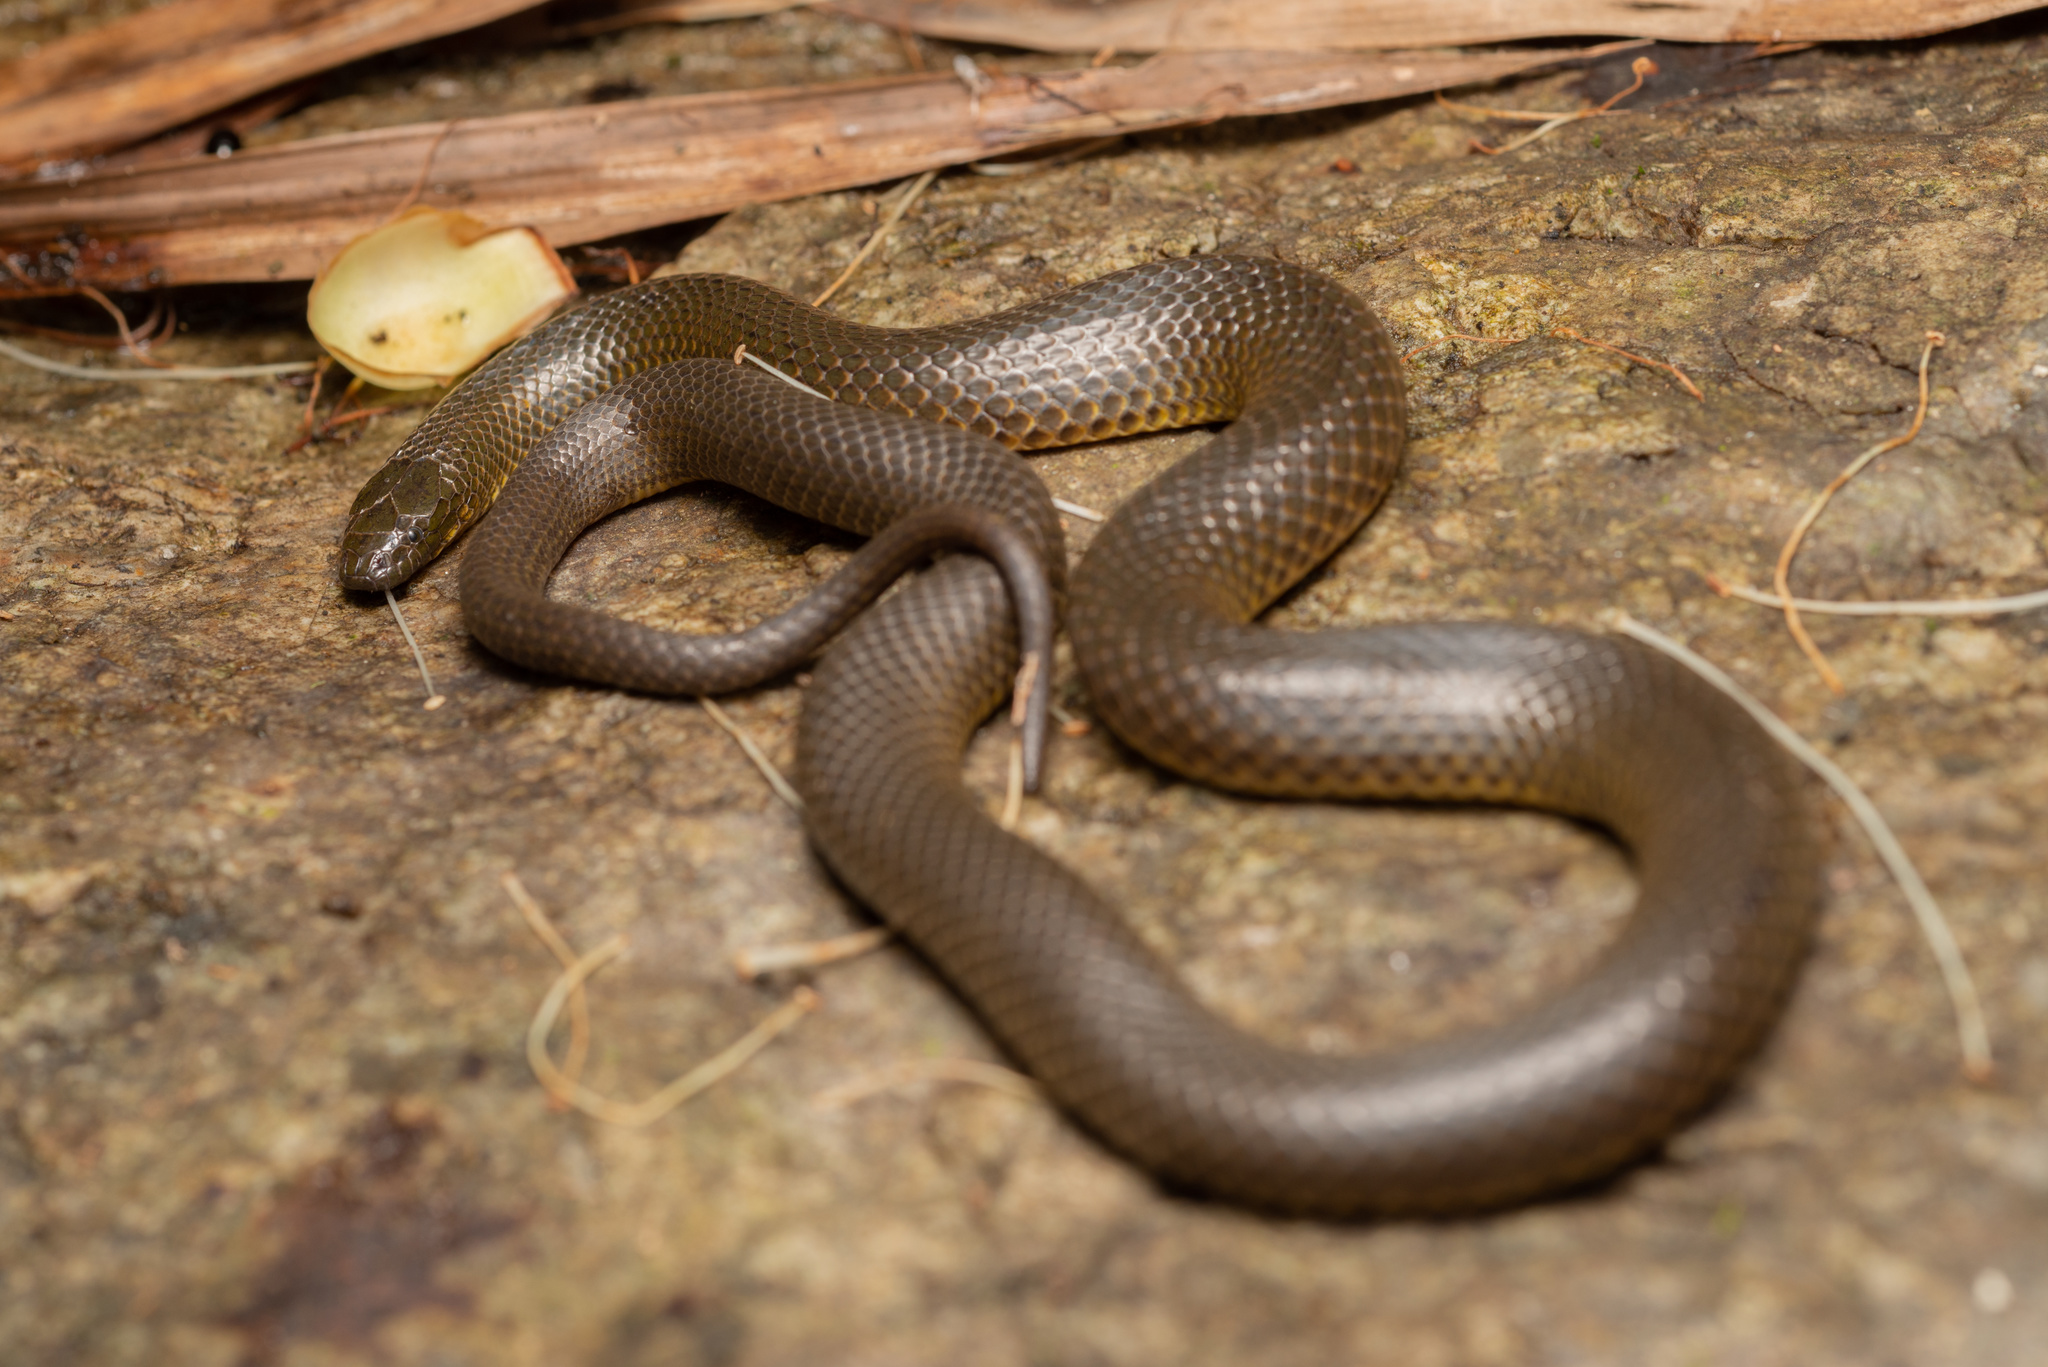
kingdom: Animalia
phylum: Chordata
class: Squamata
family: Colubridae
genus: Opisthotropis
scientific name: Opisthotropis andersonii
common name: Anderson's mountain keelback
